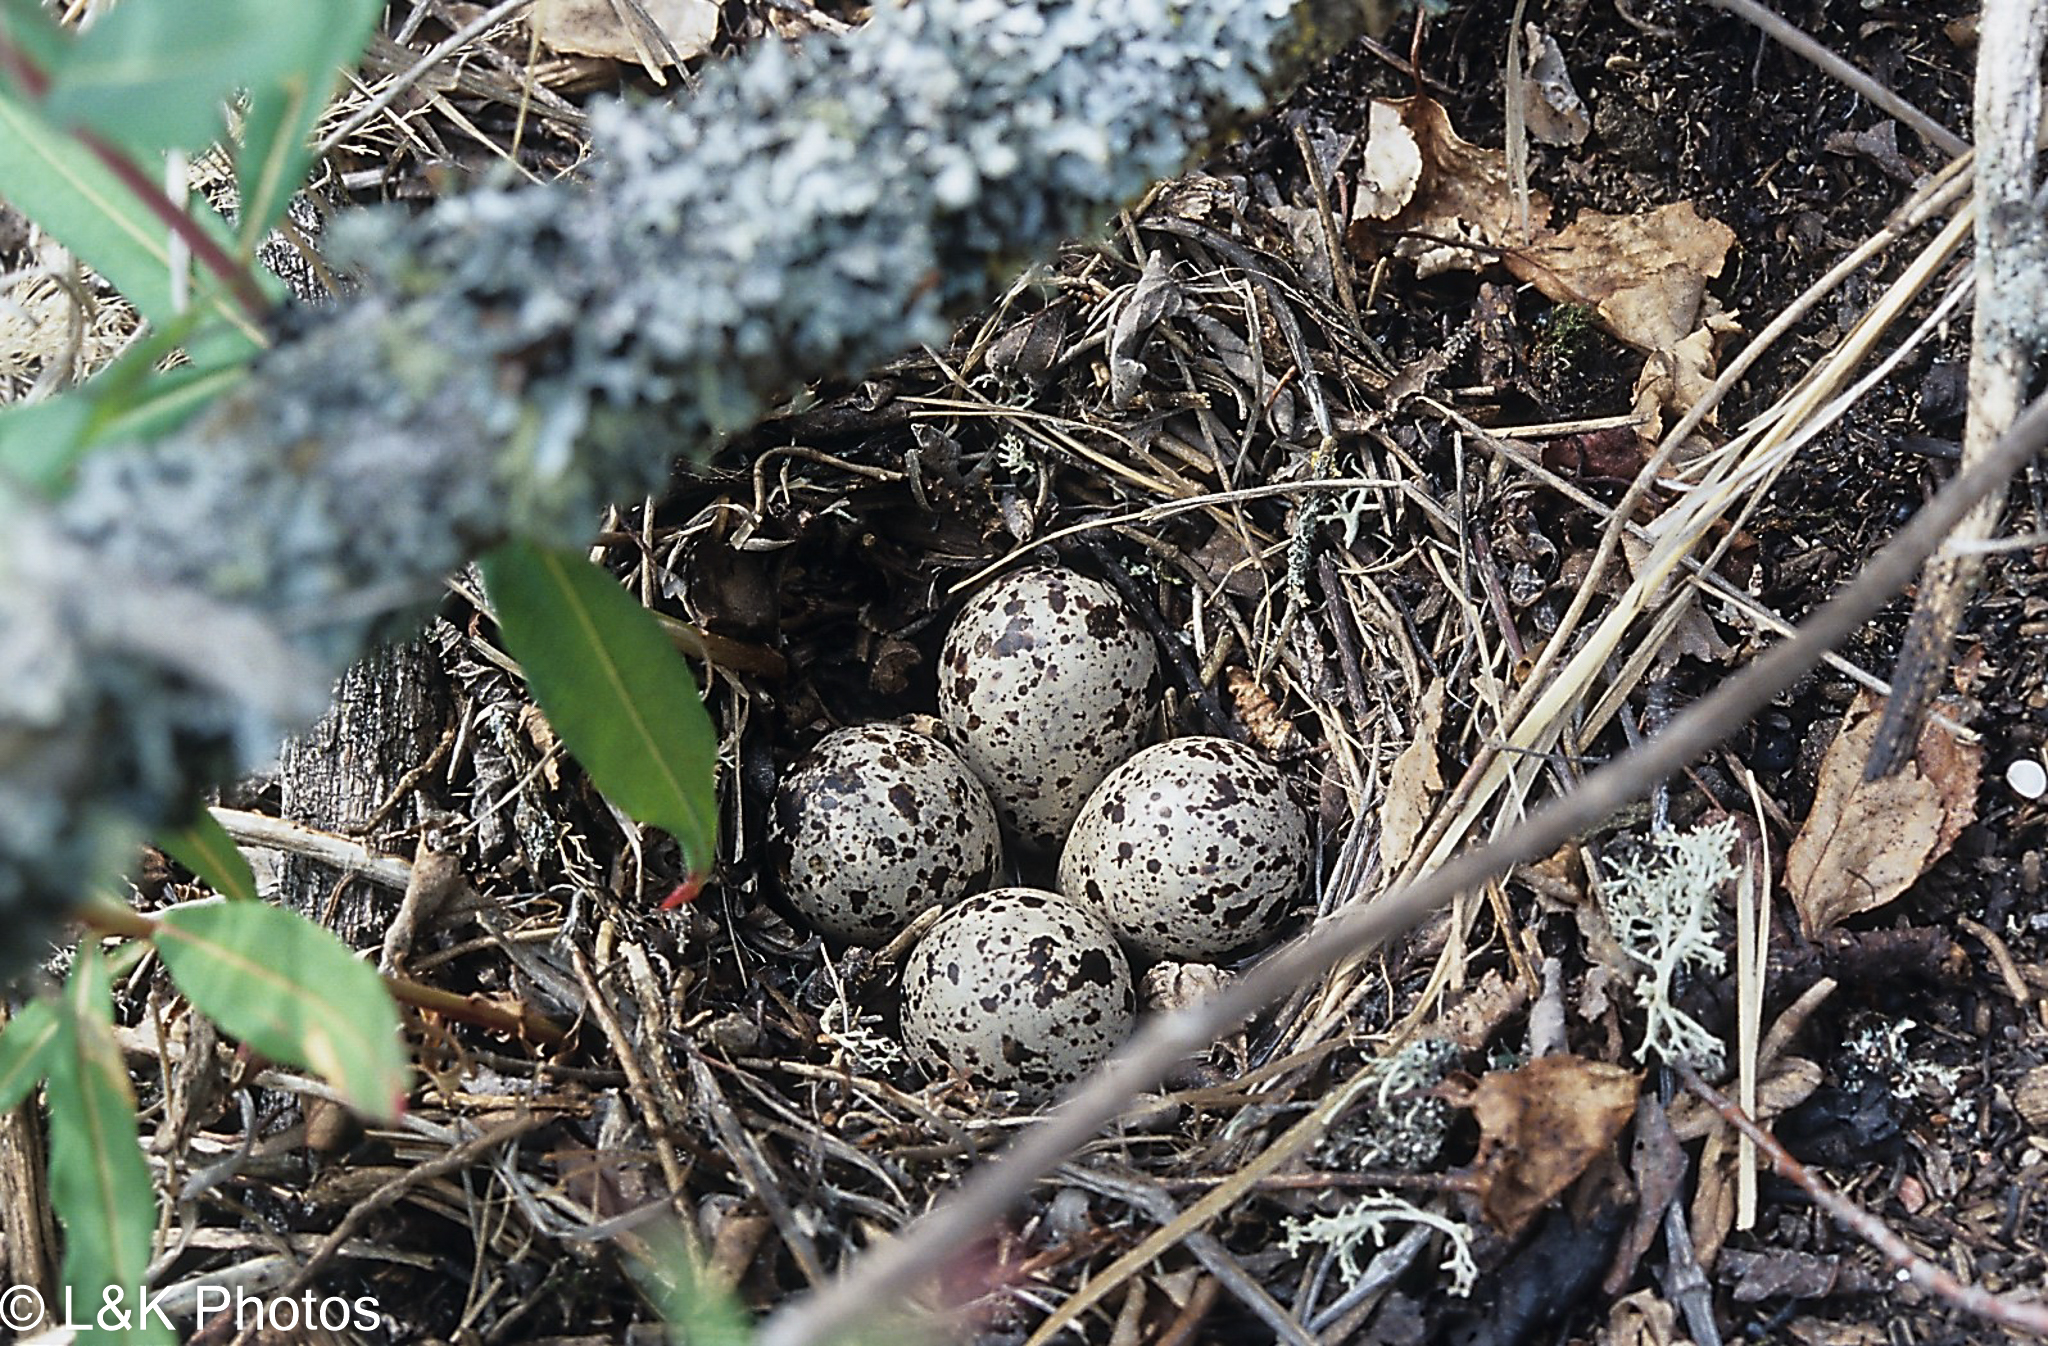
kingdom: Animalia
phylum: Chordata
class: Aves
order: Charadriiformes
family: Scolopacidae
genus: Actitis
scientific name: Actitis macularius
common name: Spotted sandpiper
